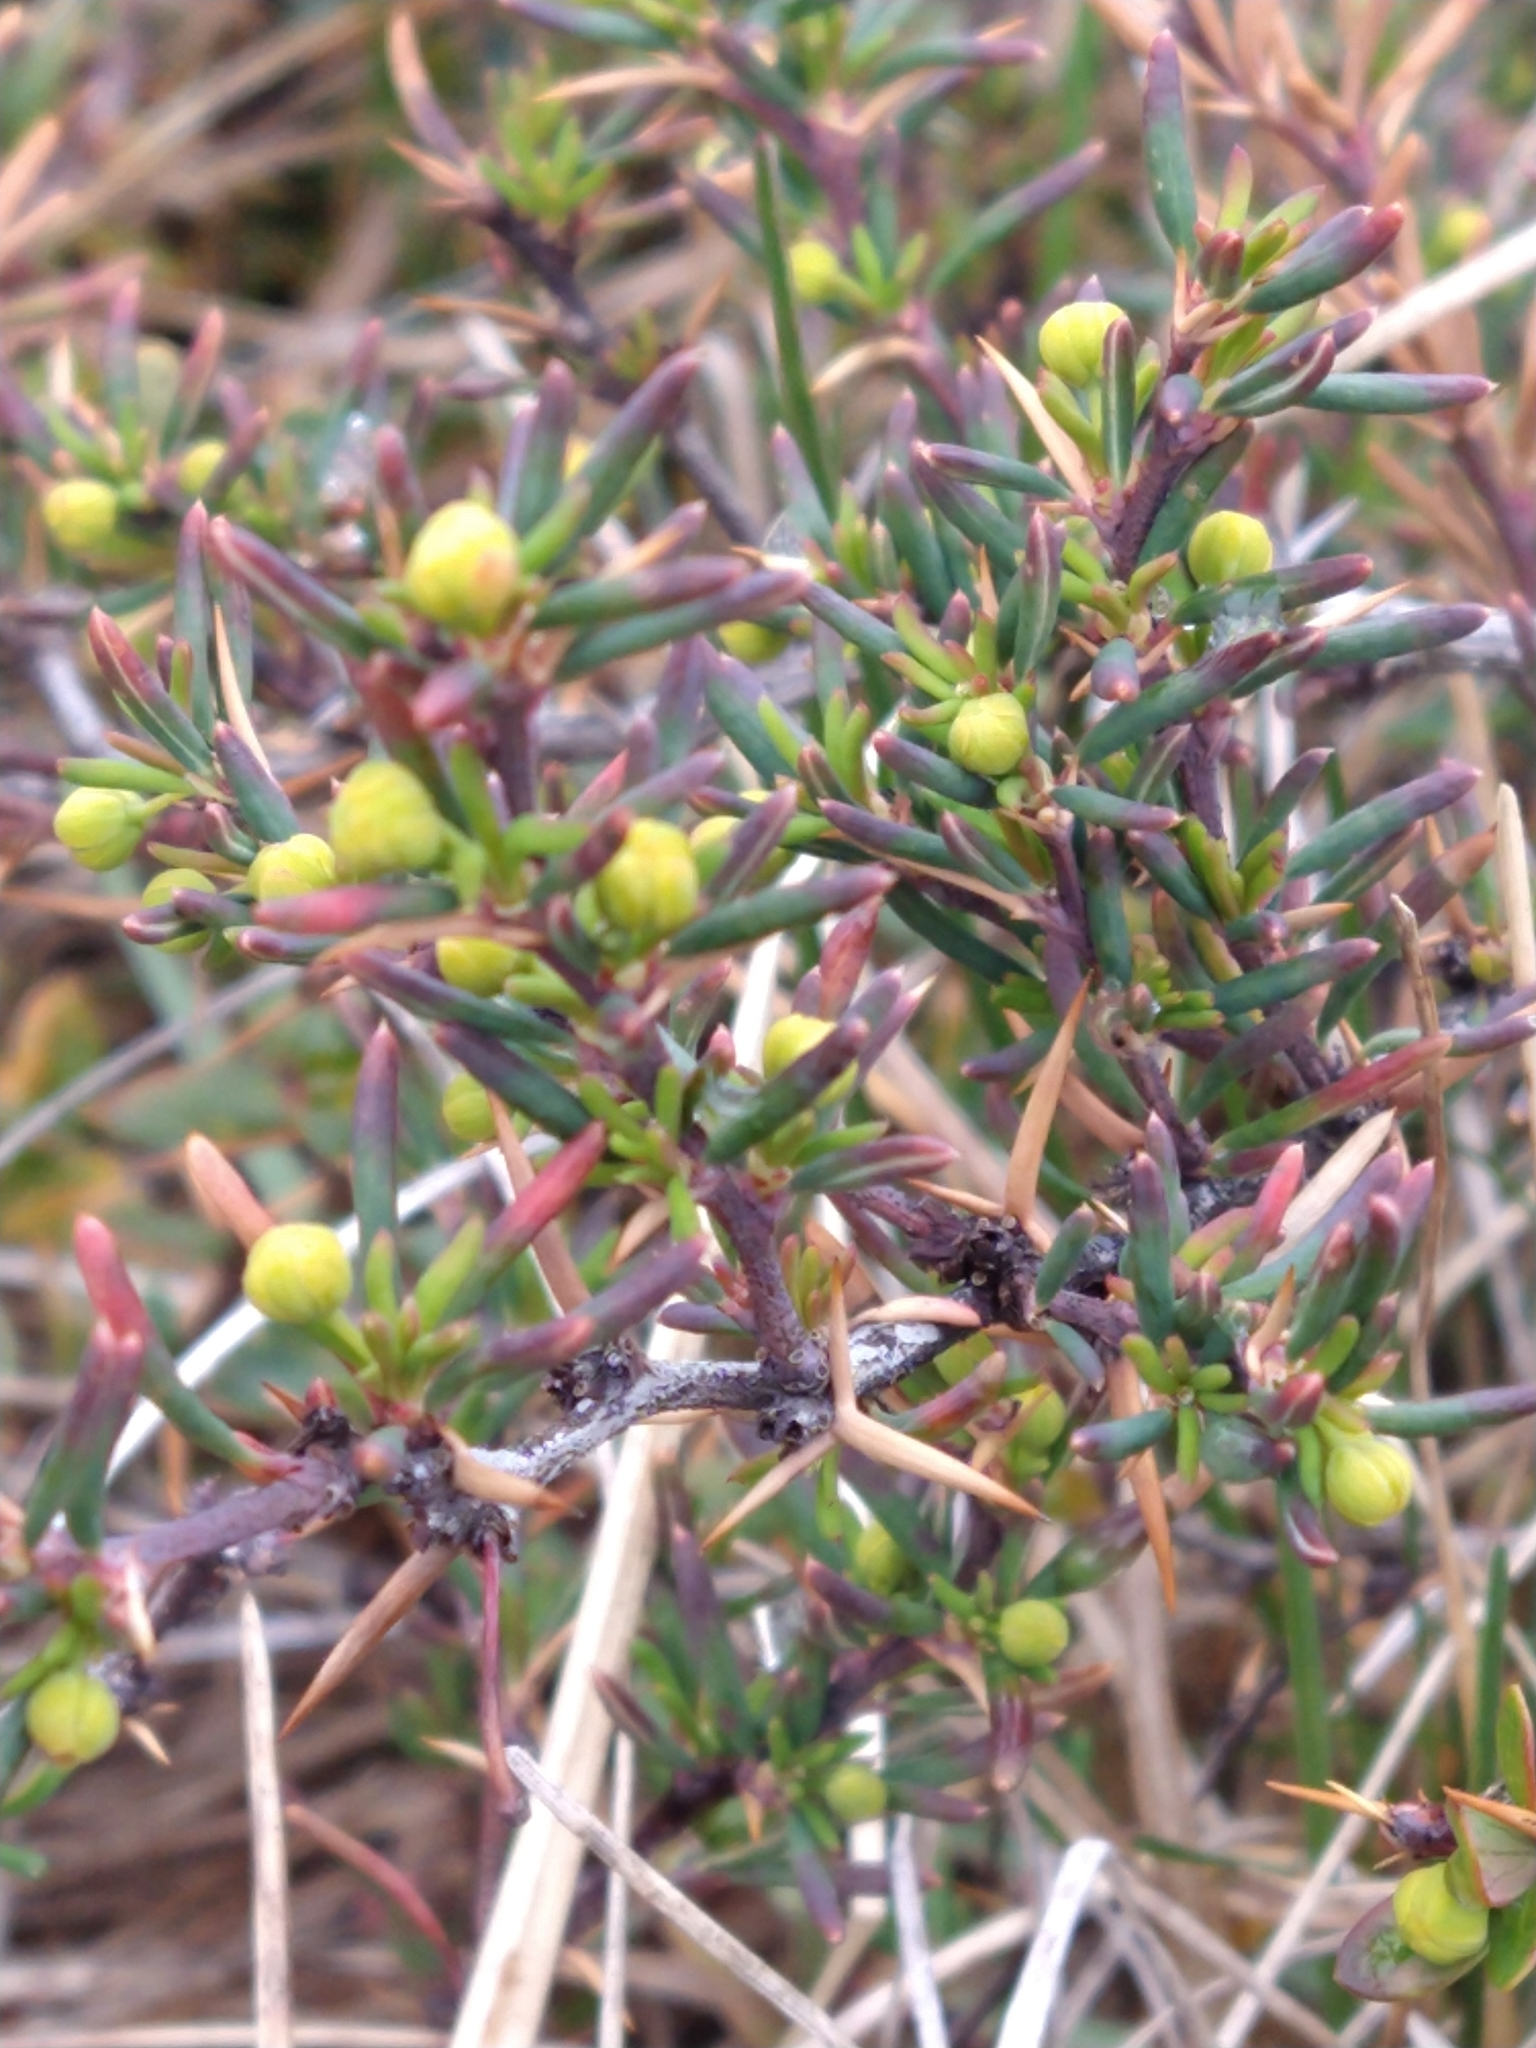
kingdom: Plantae
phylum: Tracheophyta
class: Magnoliopsida
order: Ranunculales
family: Berberidaceae
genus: Berberis
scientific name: Berberis empetrifolia
